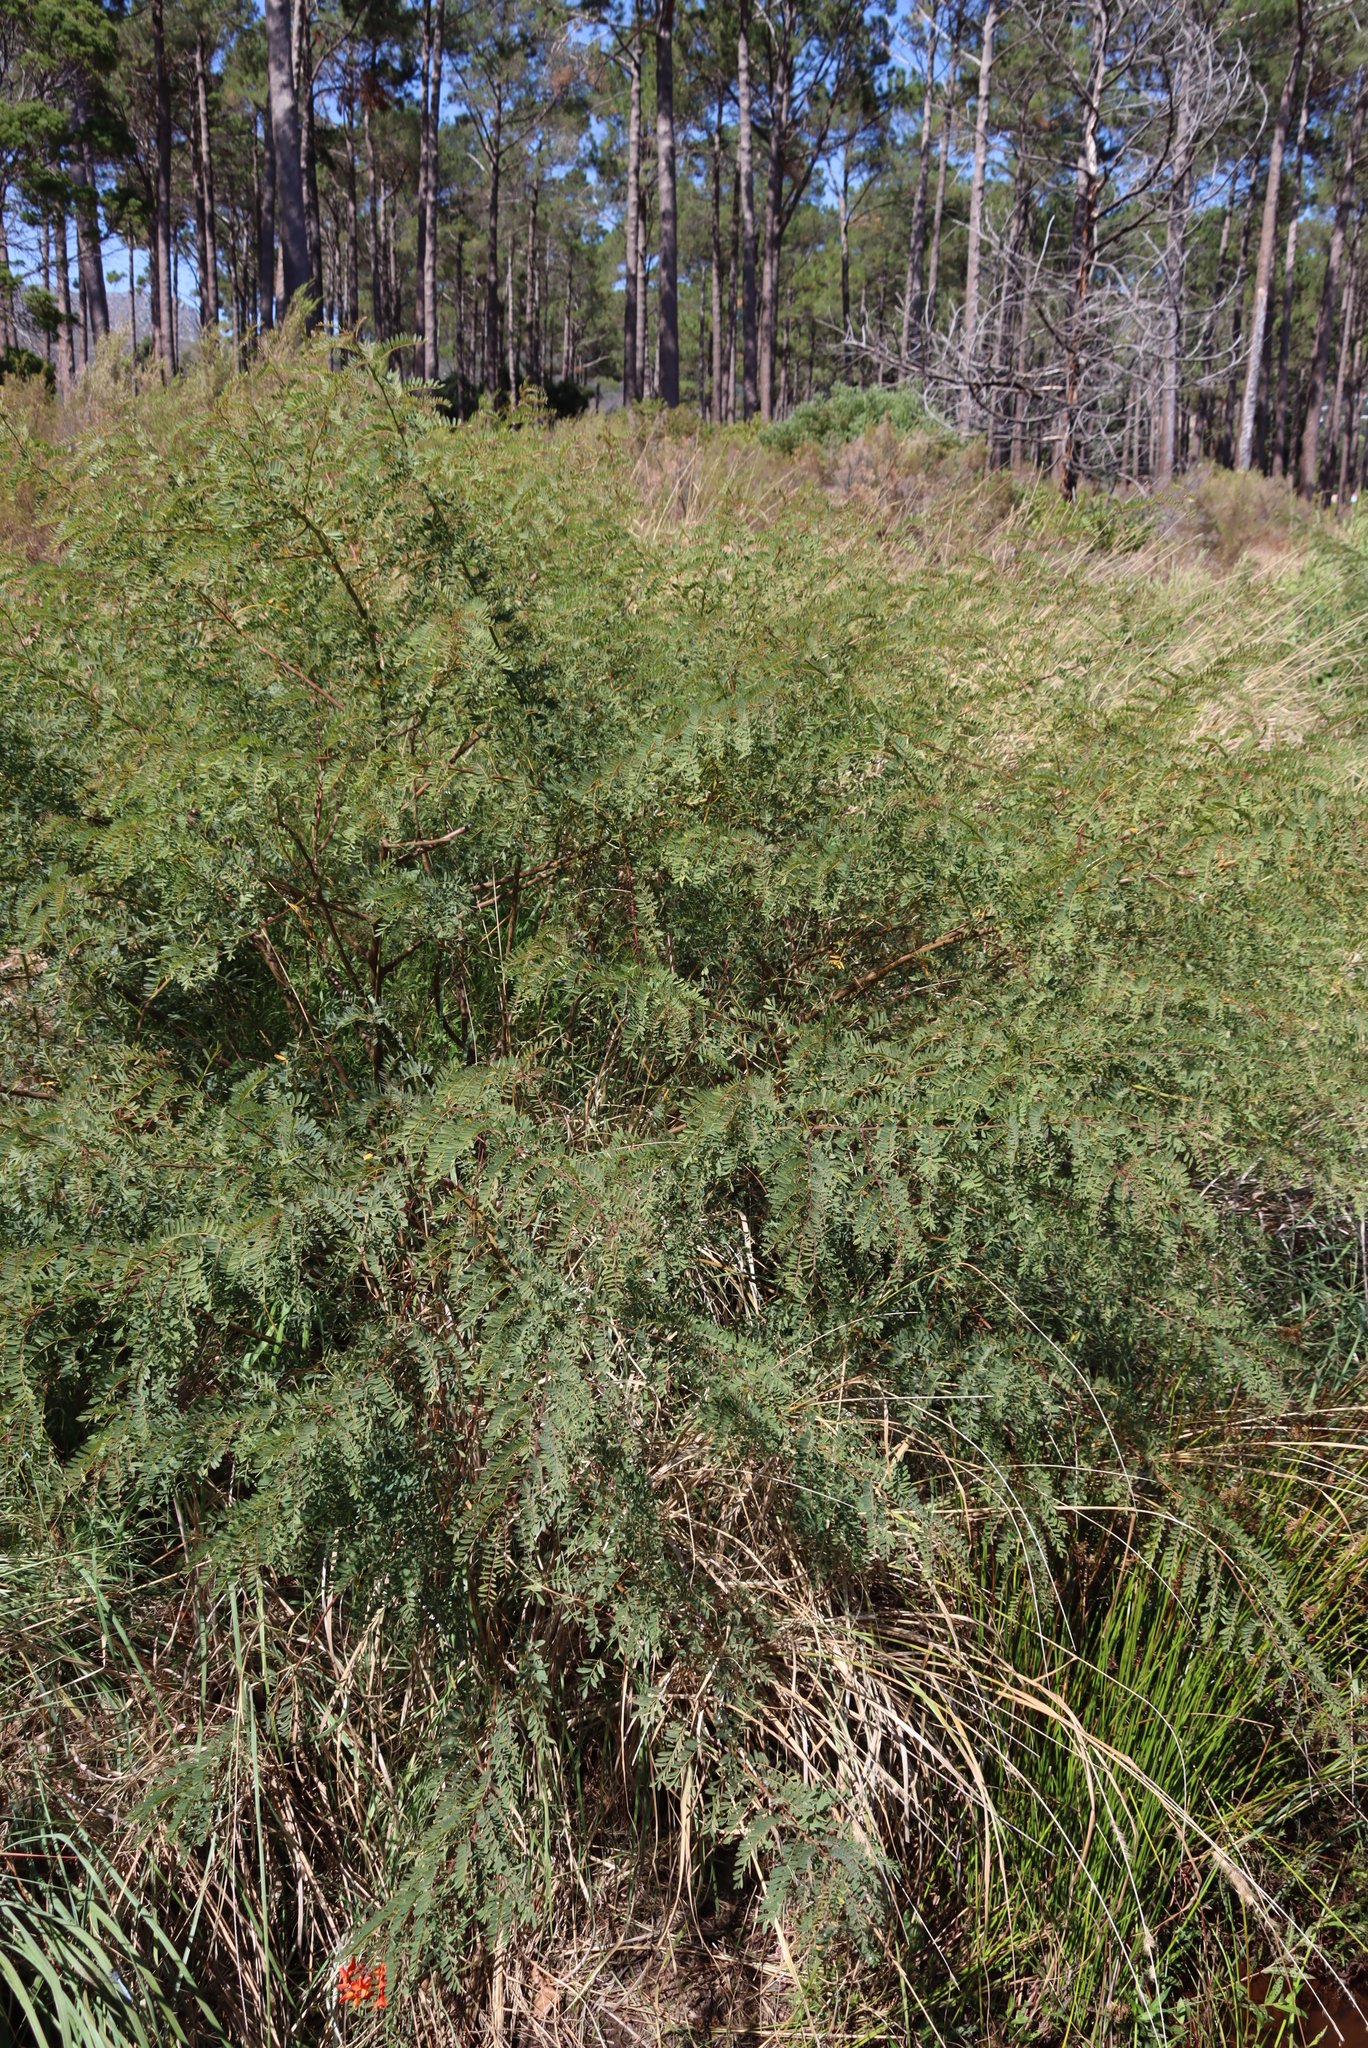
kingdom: Plantae
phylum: Tracheophyta
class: Magnoliopsida
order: Fabales
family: Fabaceae
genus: Sesbania
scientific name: Sesbania punicea
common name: Rattlebox
